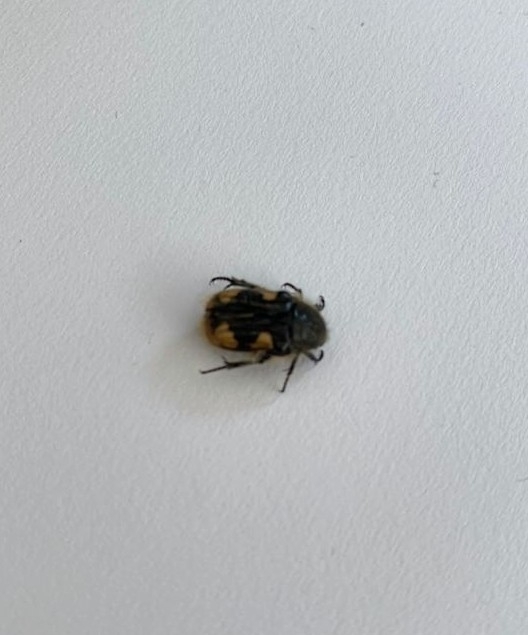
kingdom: Animalia
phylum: Arthropoda
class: Insecta
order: Coleoptera
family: Scarabaeidae
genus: Euphoria
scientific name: Euphoria basalis
